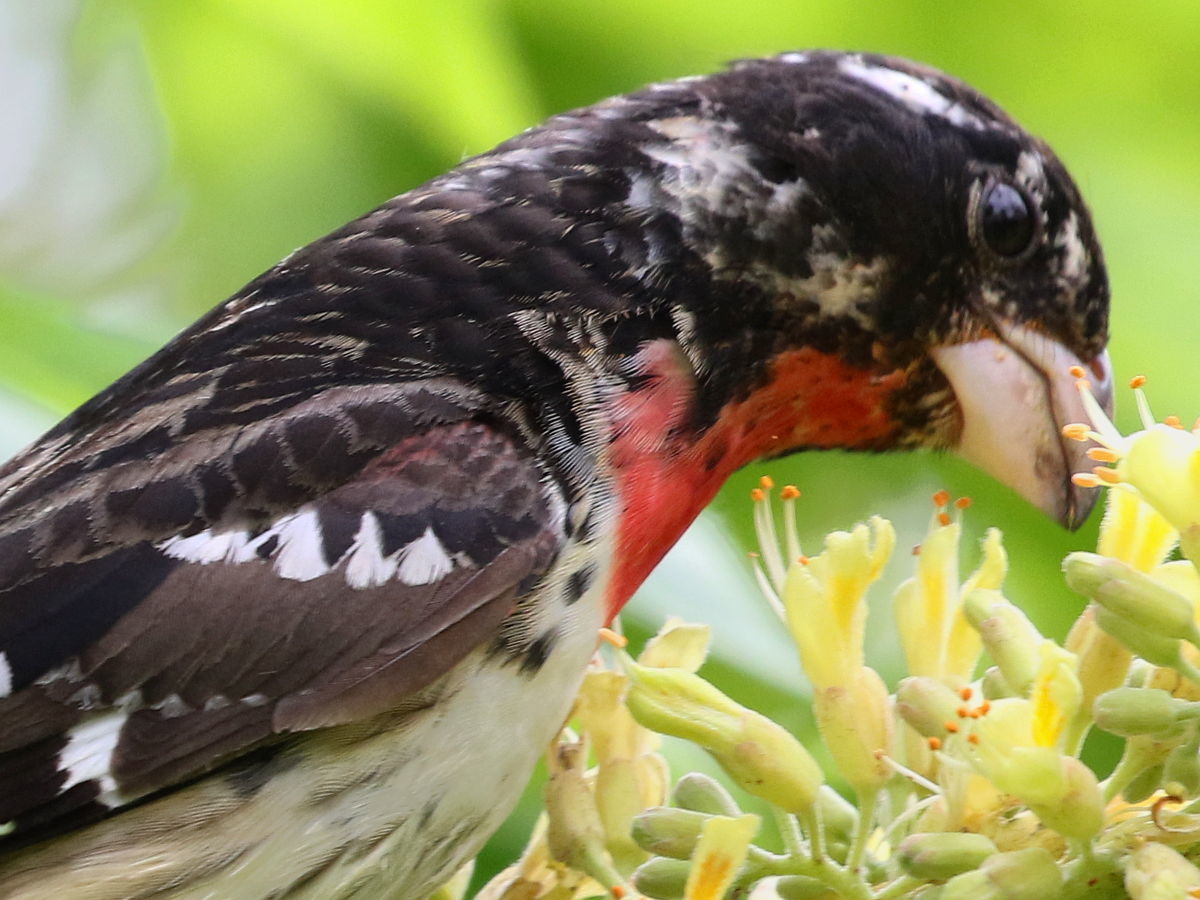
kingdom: Animalia
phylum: Chordata
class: Aves
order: Passeriformes
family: Cardinalidae
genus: Pheucticus
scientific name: Pheucticus ludovicianus
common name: Rose-breasted grosbeak
